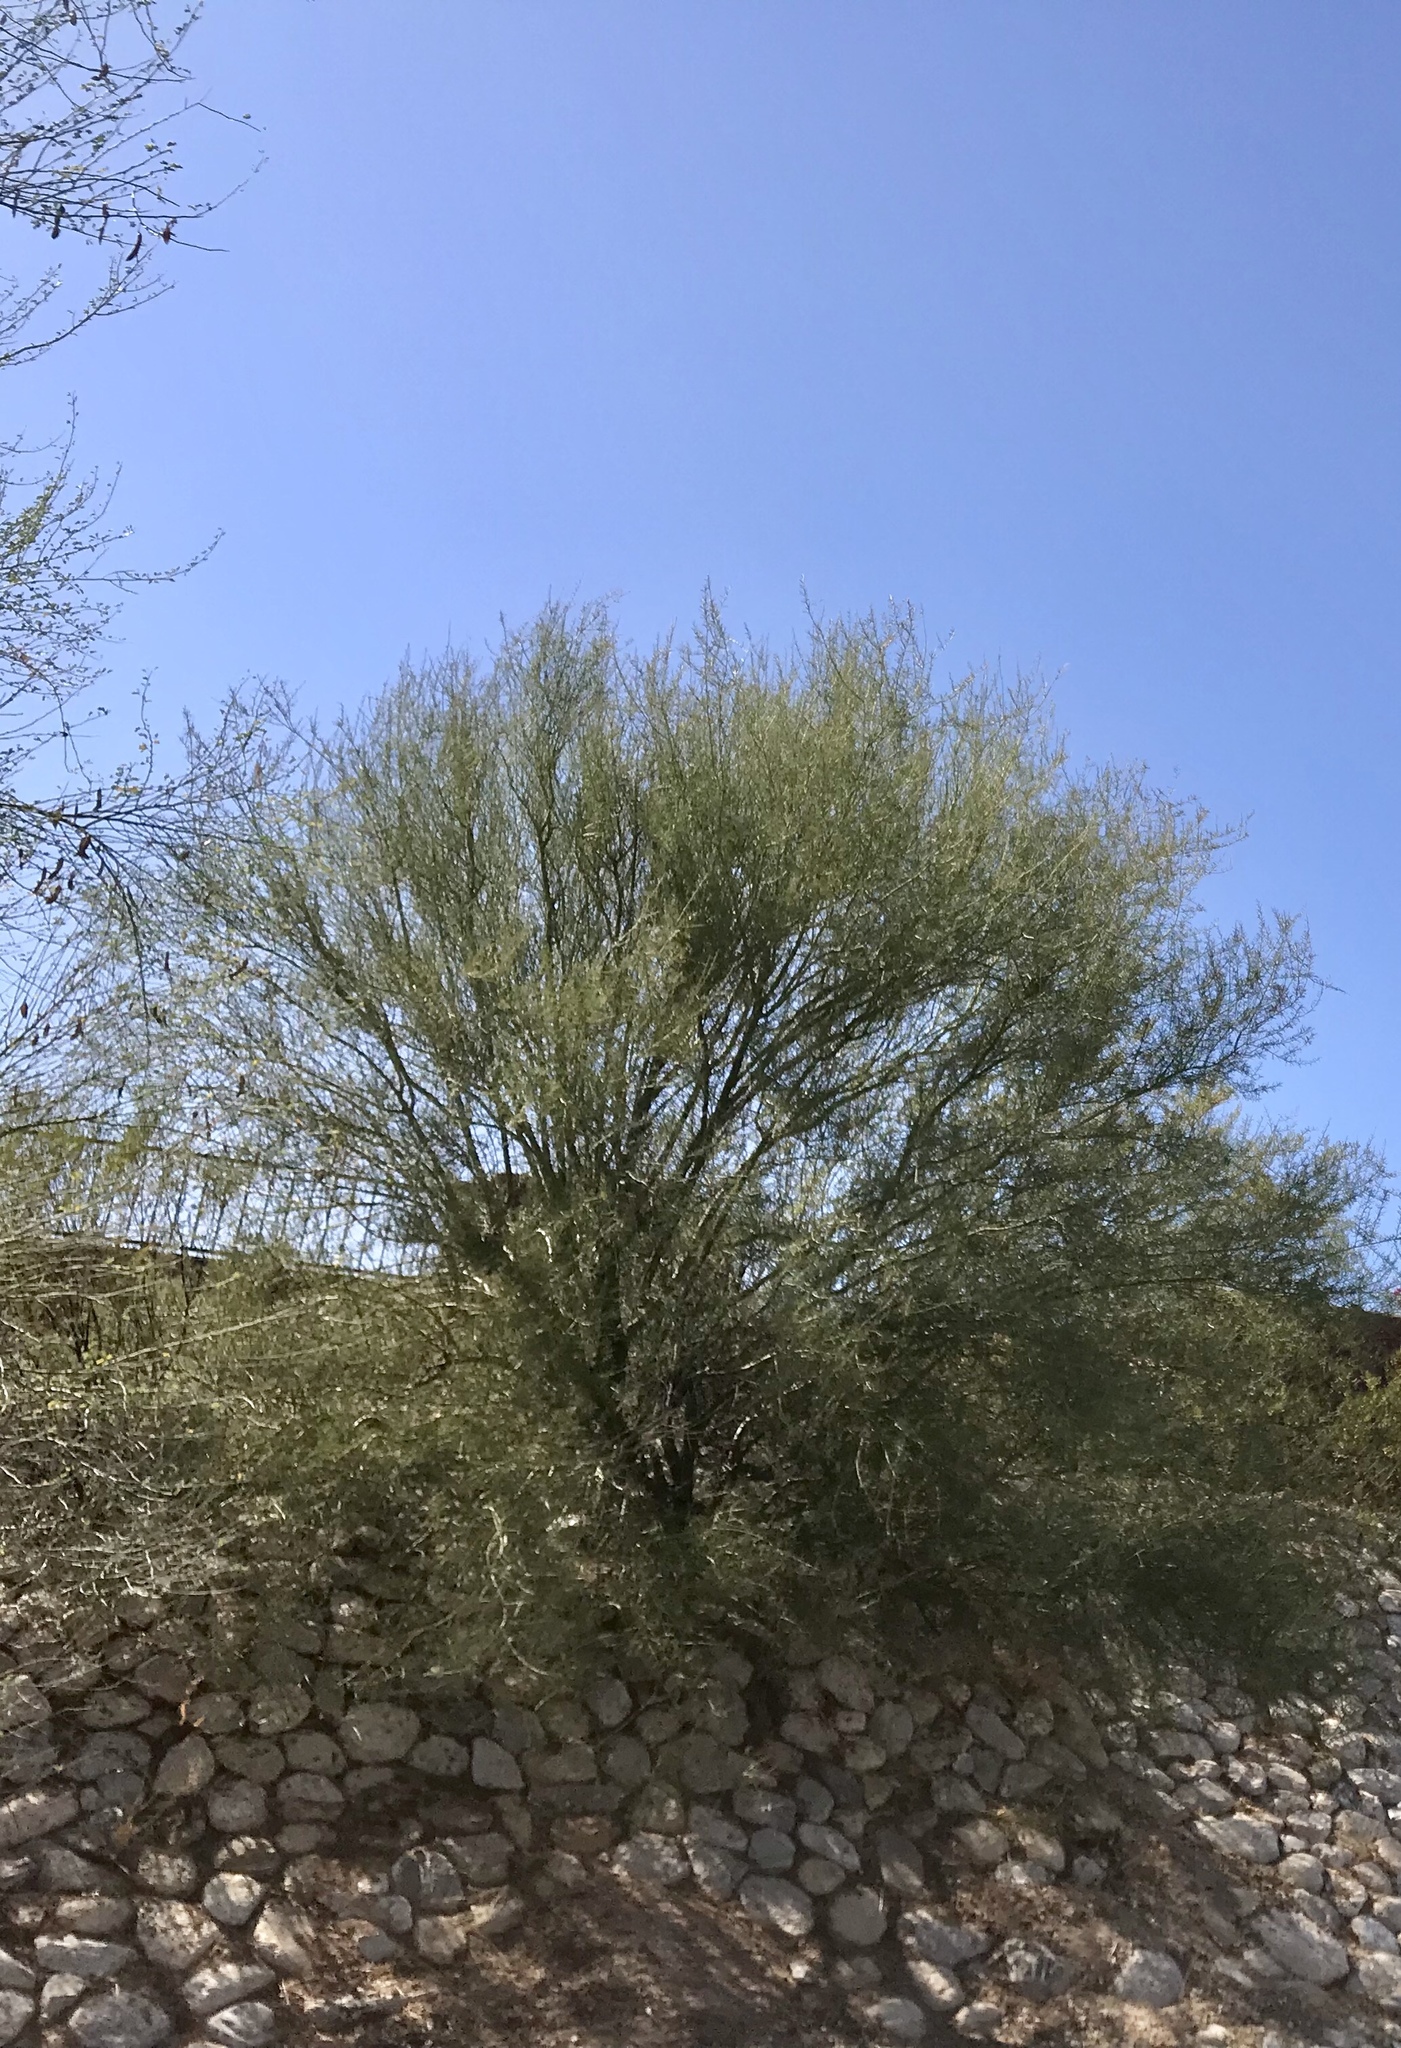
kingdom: Plantae
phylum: Tracheophyta
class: Magnoliopsida
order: Fabales
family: Fabaceae
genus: Parkinsonia
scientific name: Parkinsonia florida
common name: Blue paloverde
